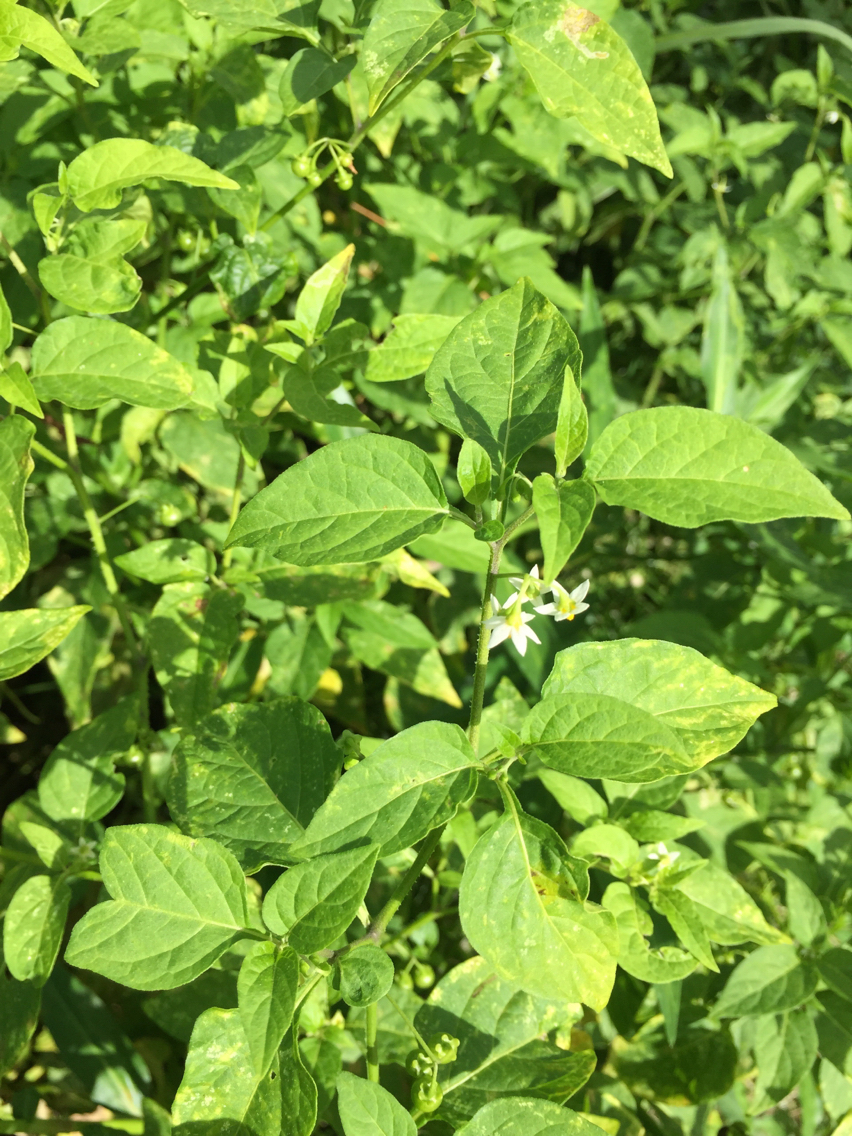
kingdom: Plantae
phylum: Tracheophyta
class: Magnoliopsida
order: Solanales
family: Solanaceae
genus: Solanum
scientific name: Solanum americanum
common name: American black nightshade
